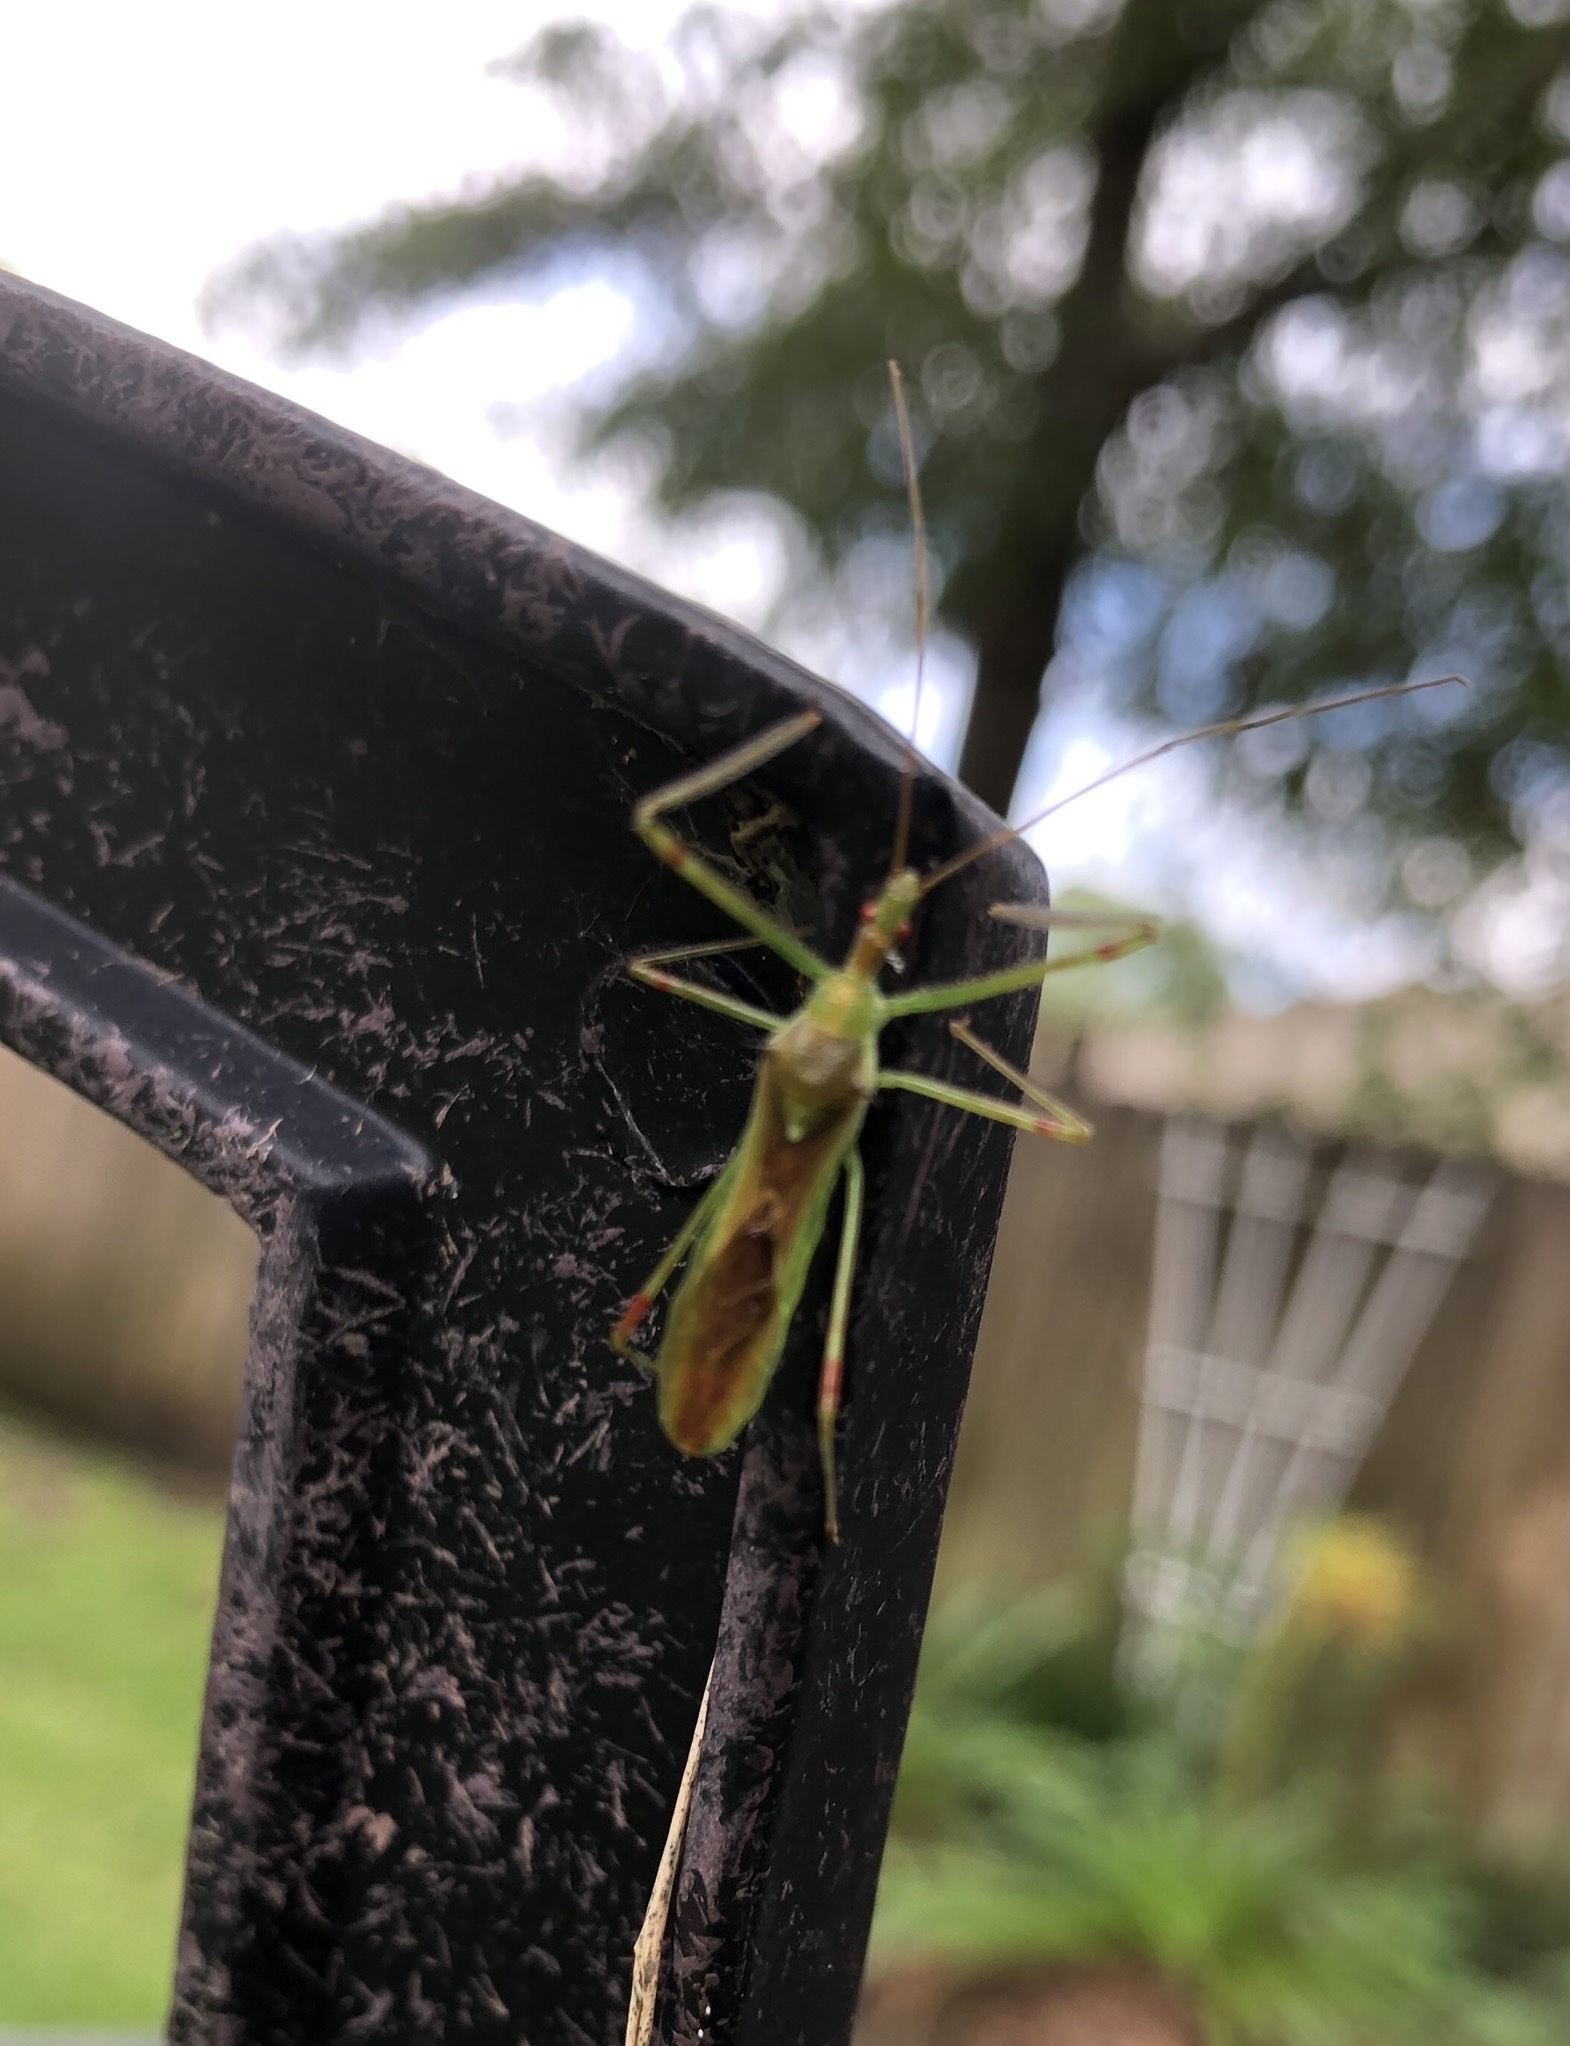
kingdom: Animalia
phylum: Arthropoda
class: Insecta
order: Hemiptera
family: Reduviidae
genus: Zelus
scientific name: Zelus luridus
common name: Pale green assassin bug
